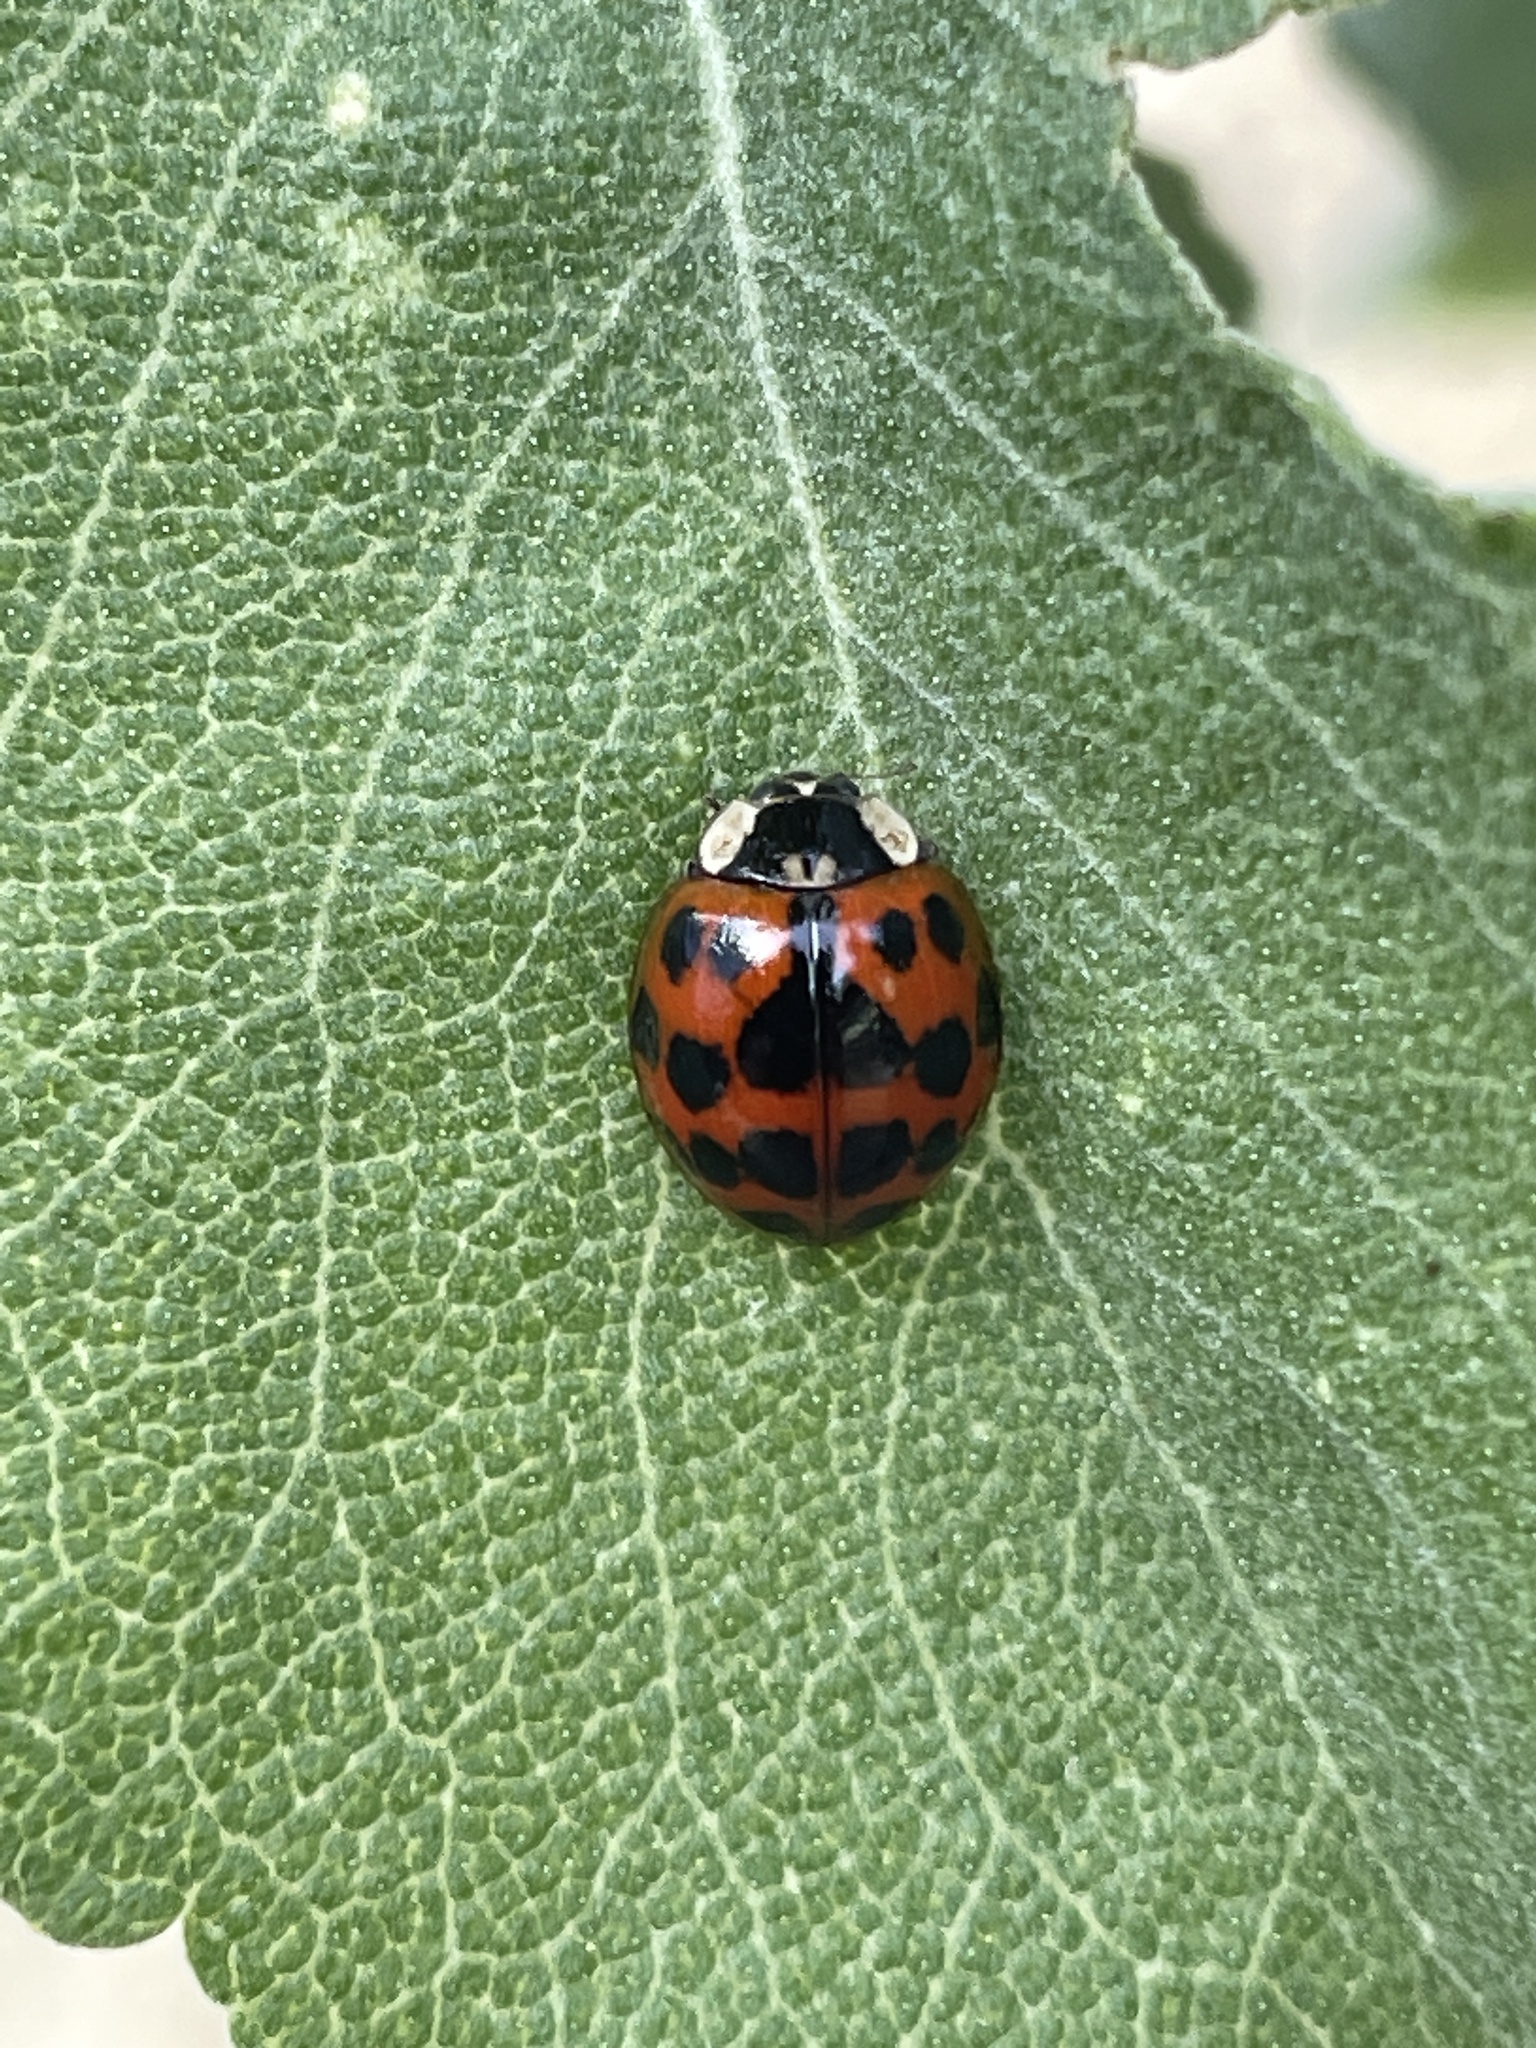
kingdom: Animalia
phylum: Arthropoda
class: Insecta
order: Coleoptera
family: Coccinellidae
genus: Harmonia
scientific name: Harmonia axyridis
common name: Harlequin ladybird
